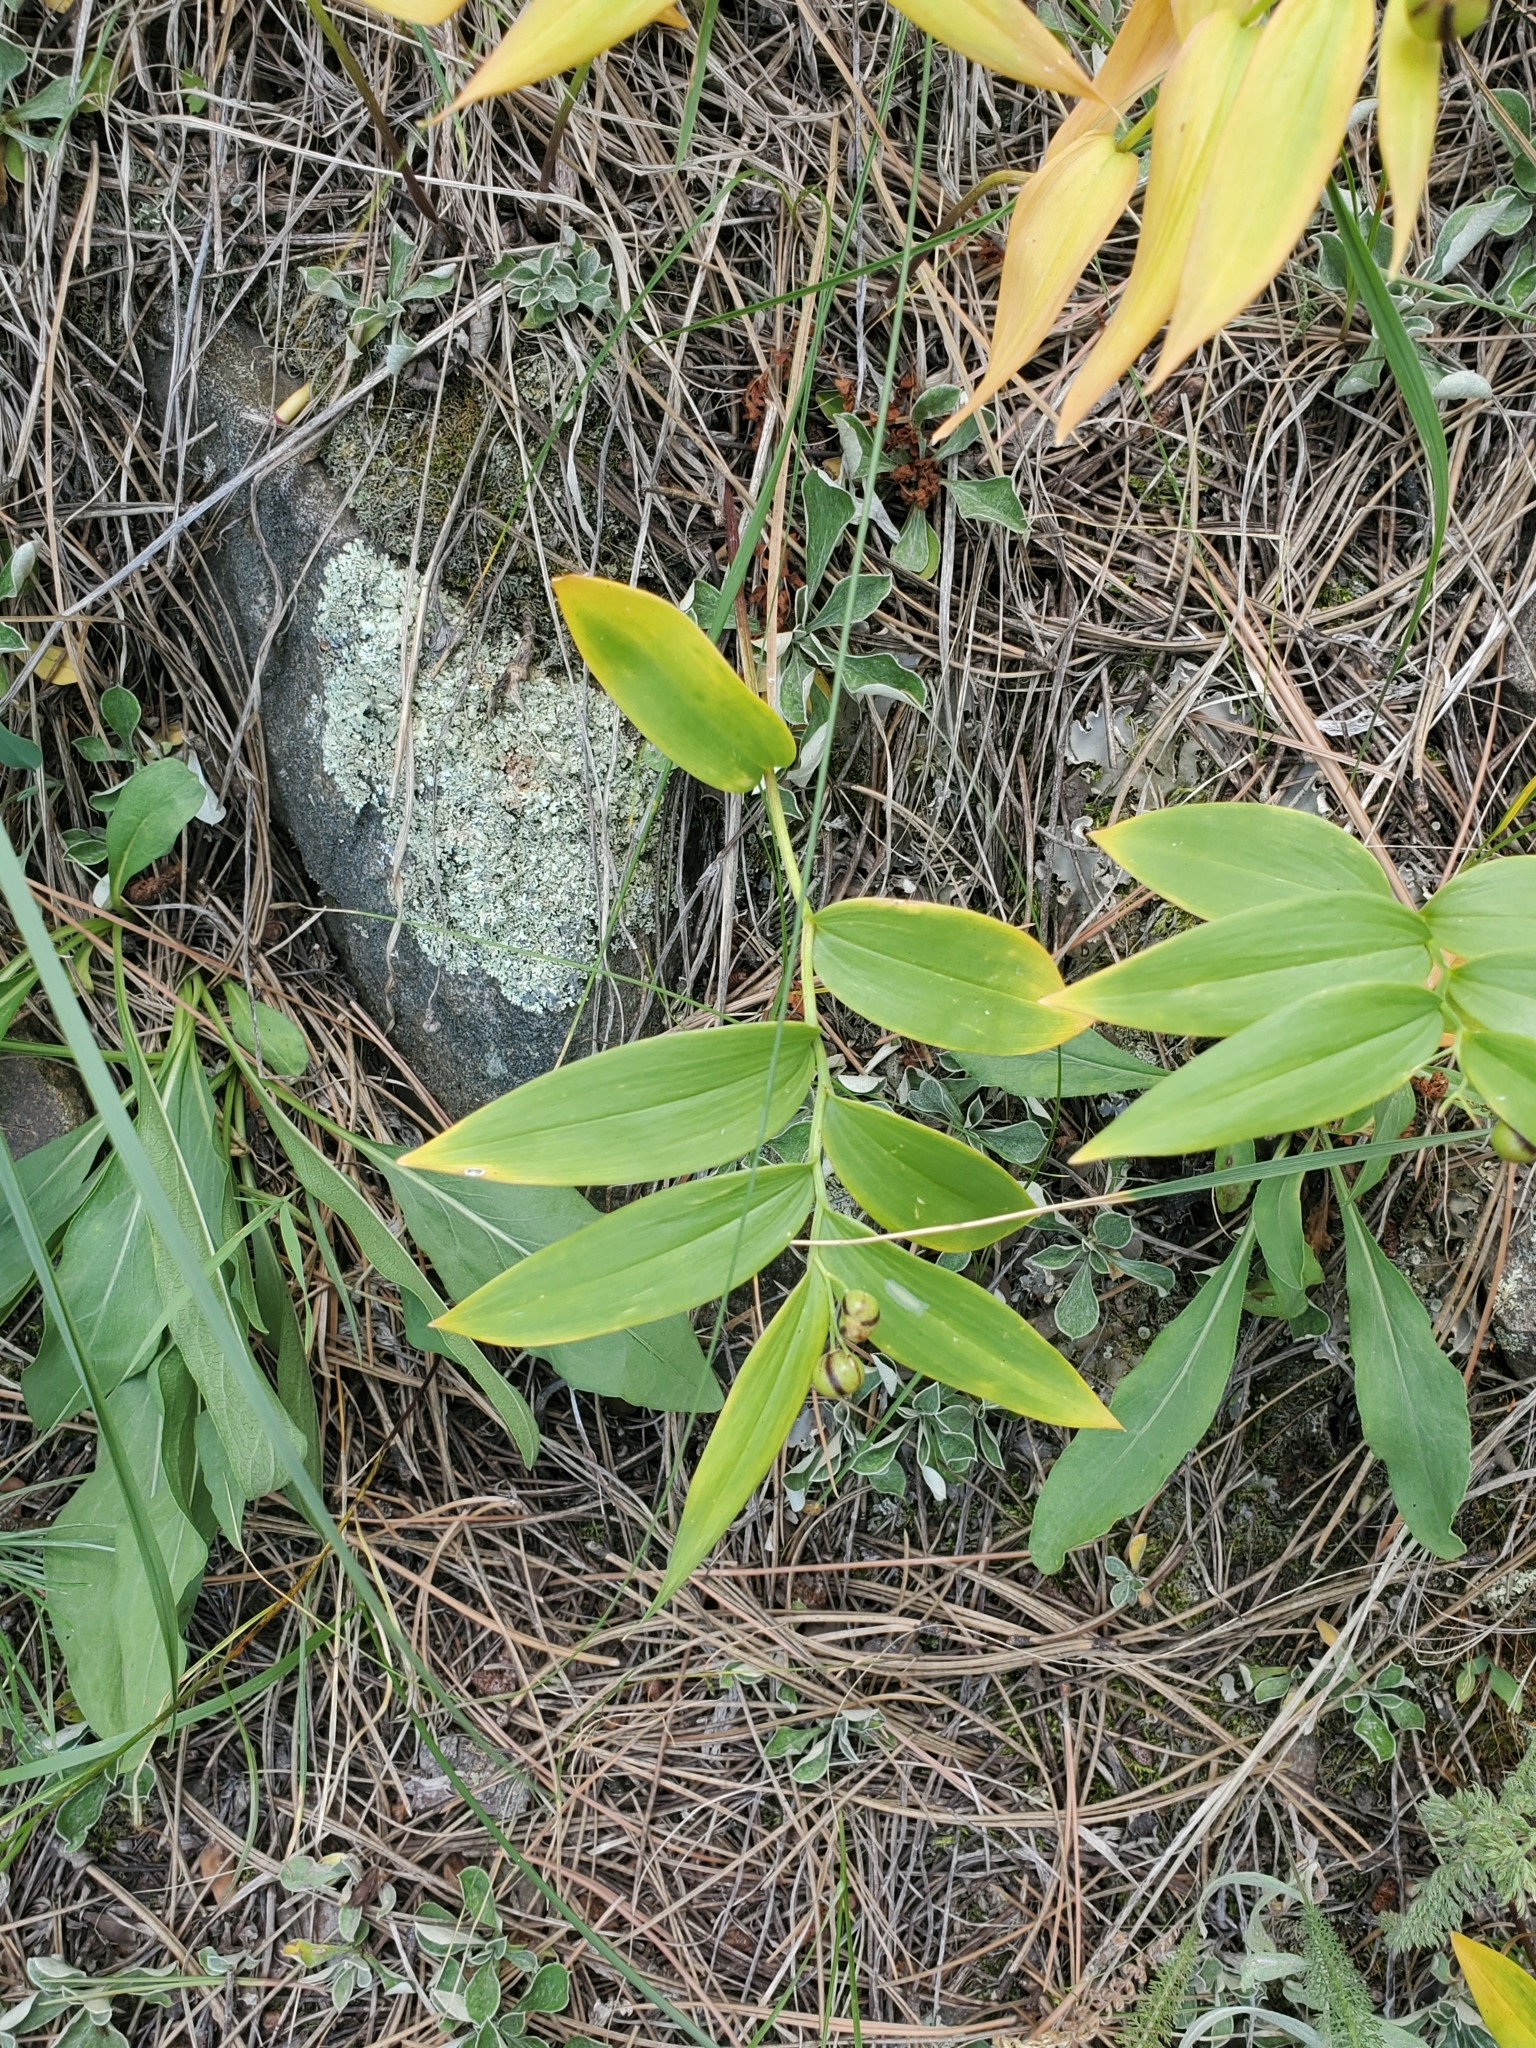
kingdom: Plantae
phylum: Tracheophyta
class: Liliopsida
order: Asparagales
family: Asparagaceae
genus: Maianthemum
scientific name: Maianthemum stellatum
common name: Little false solomon's seal
